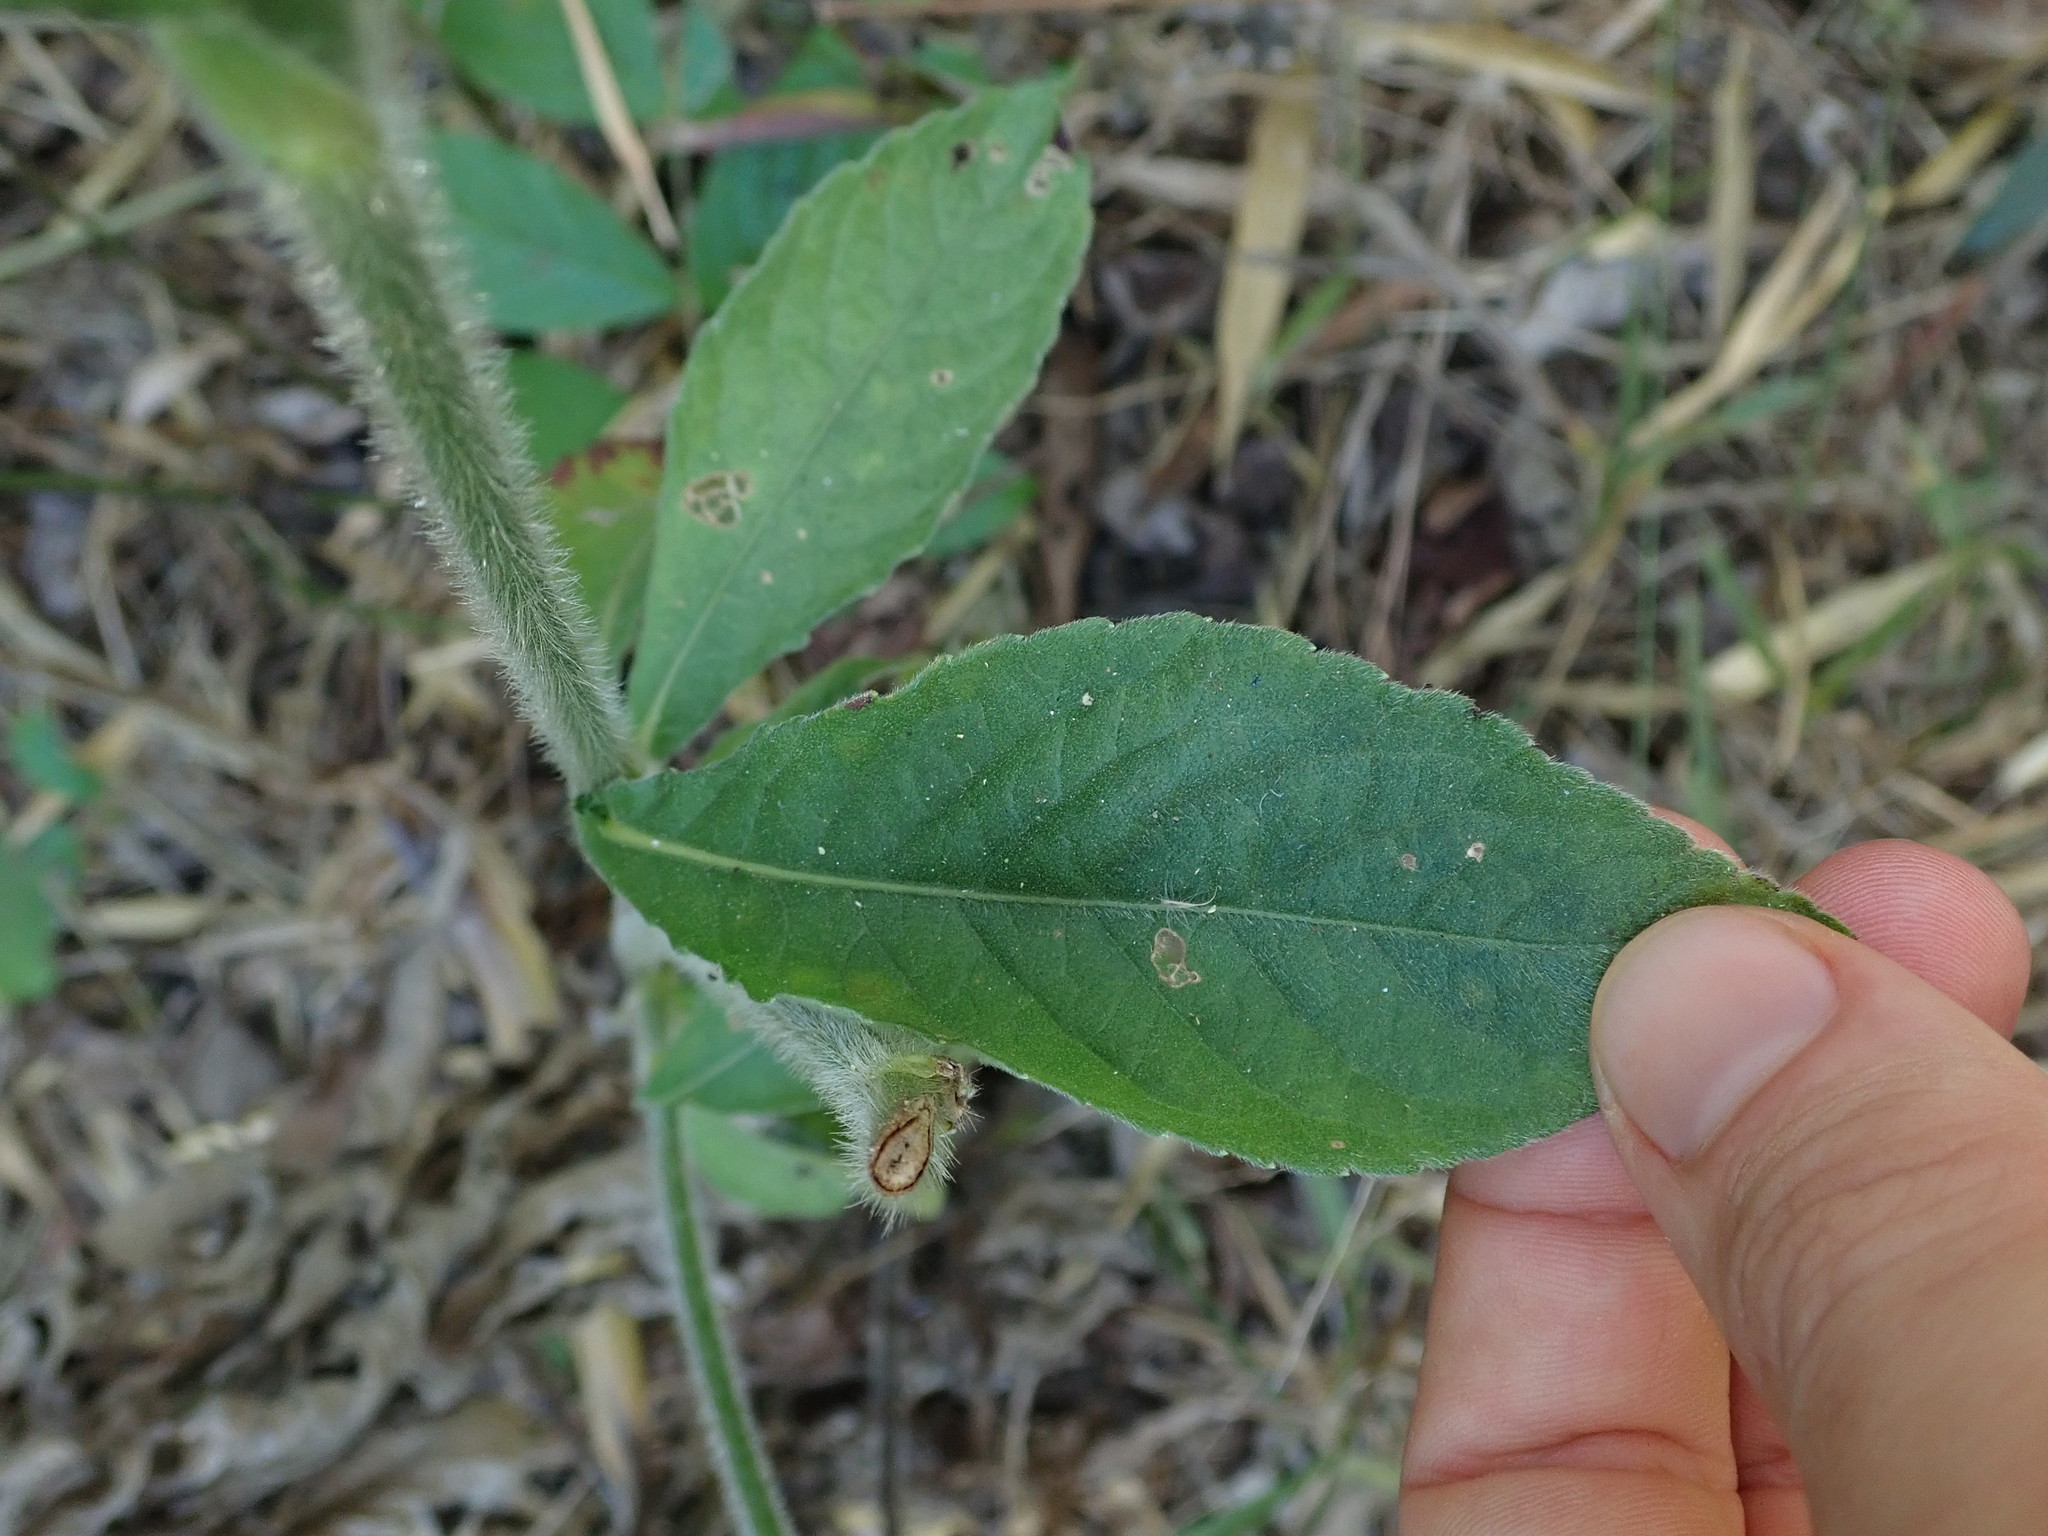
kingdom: Plantae
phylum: Tracheophyta
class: Magnoliopsida
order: Asterales
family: Asteraceae
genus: Elephantopus
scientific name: Elephantopus mollis
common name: Soft elephantsfoot
